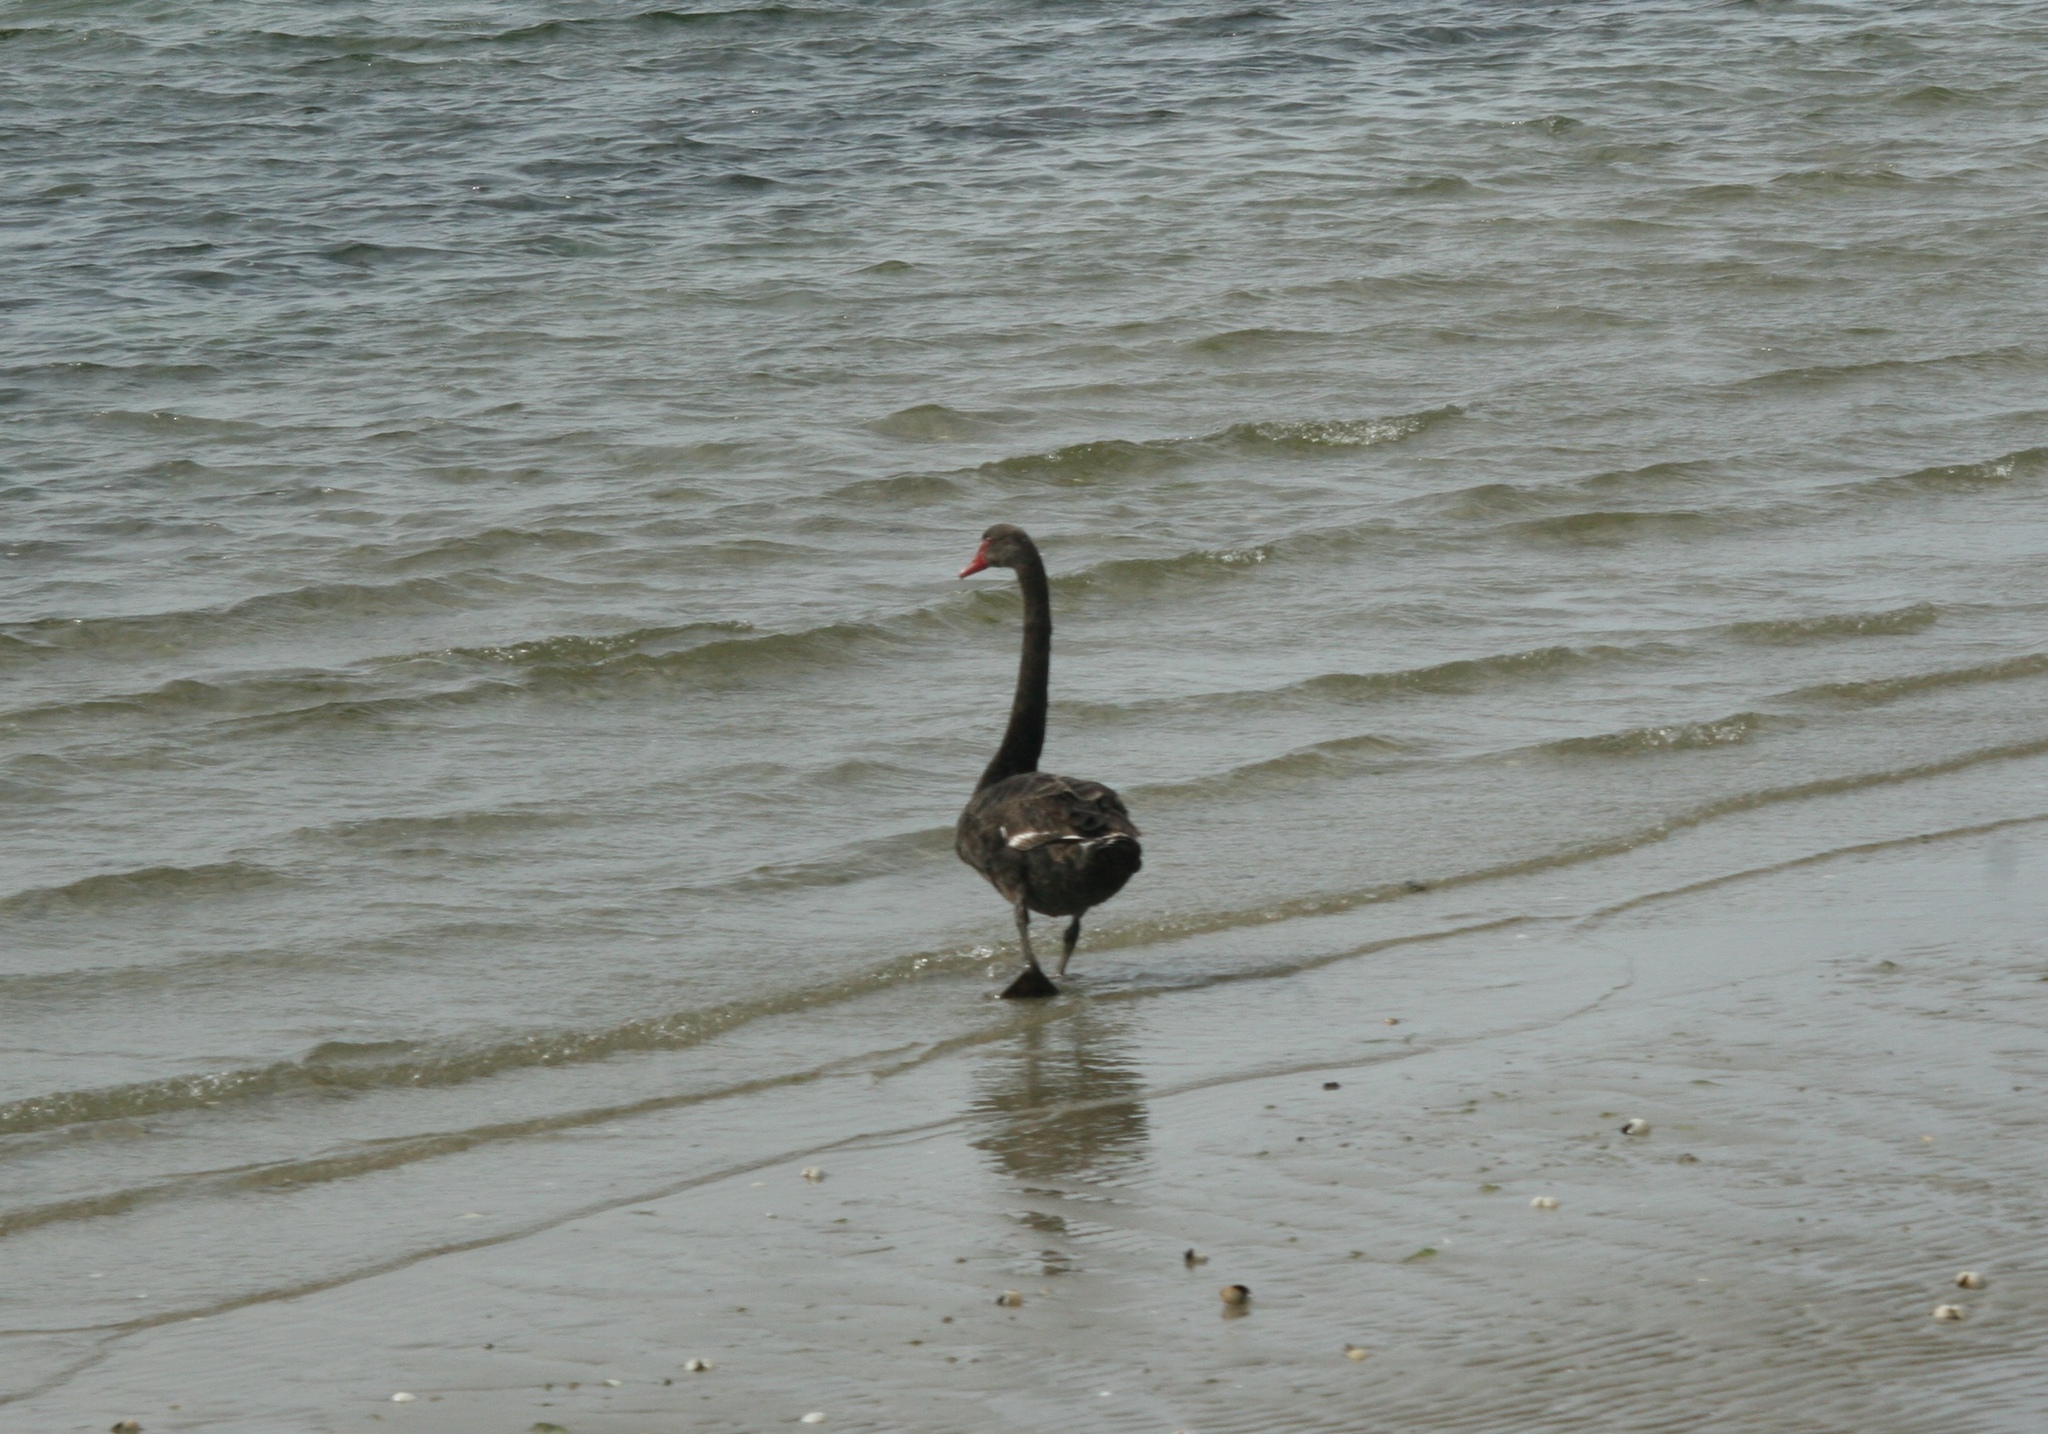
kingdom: Animalia
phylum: Chordata
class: Aves
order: Anseriformes
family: Anatidae
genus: Cygnus
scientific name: Cygnus atratus
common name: Black swan
